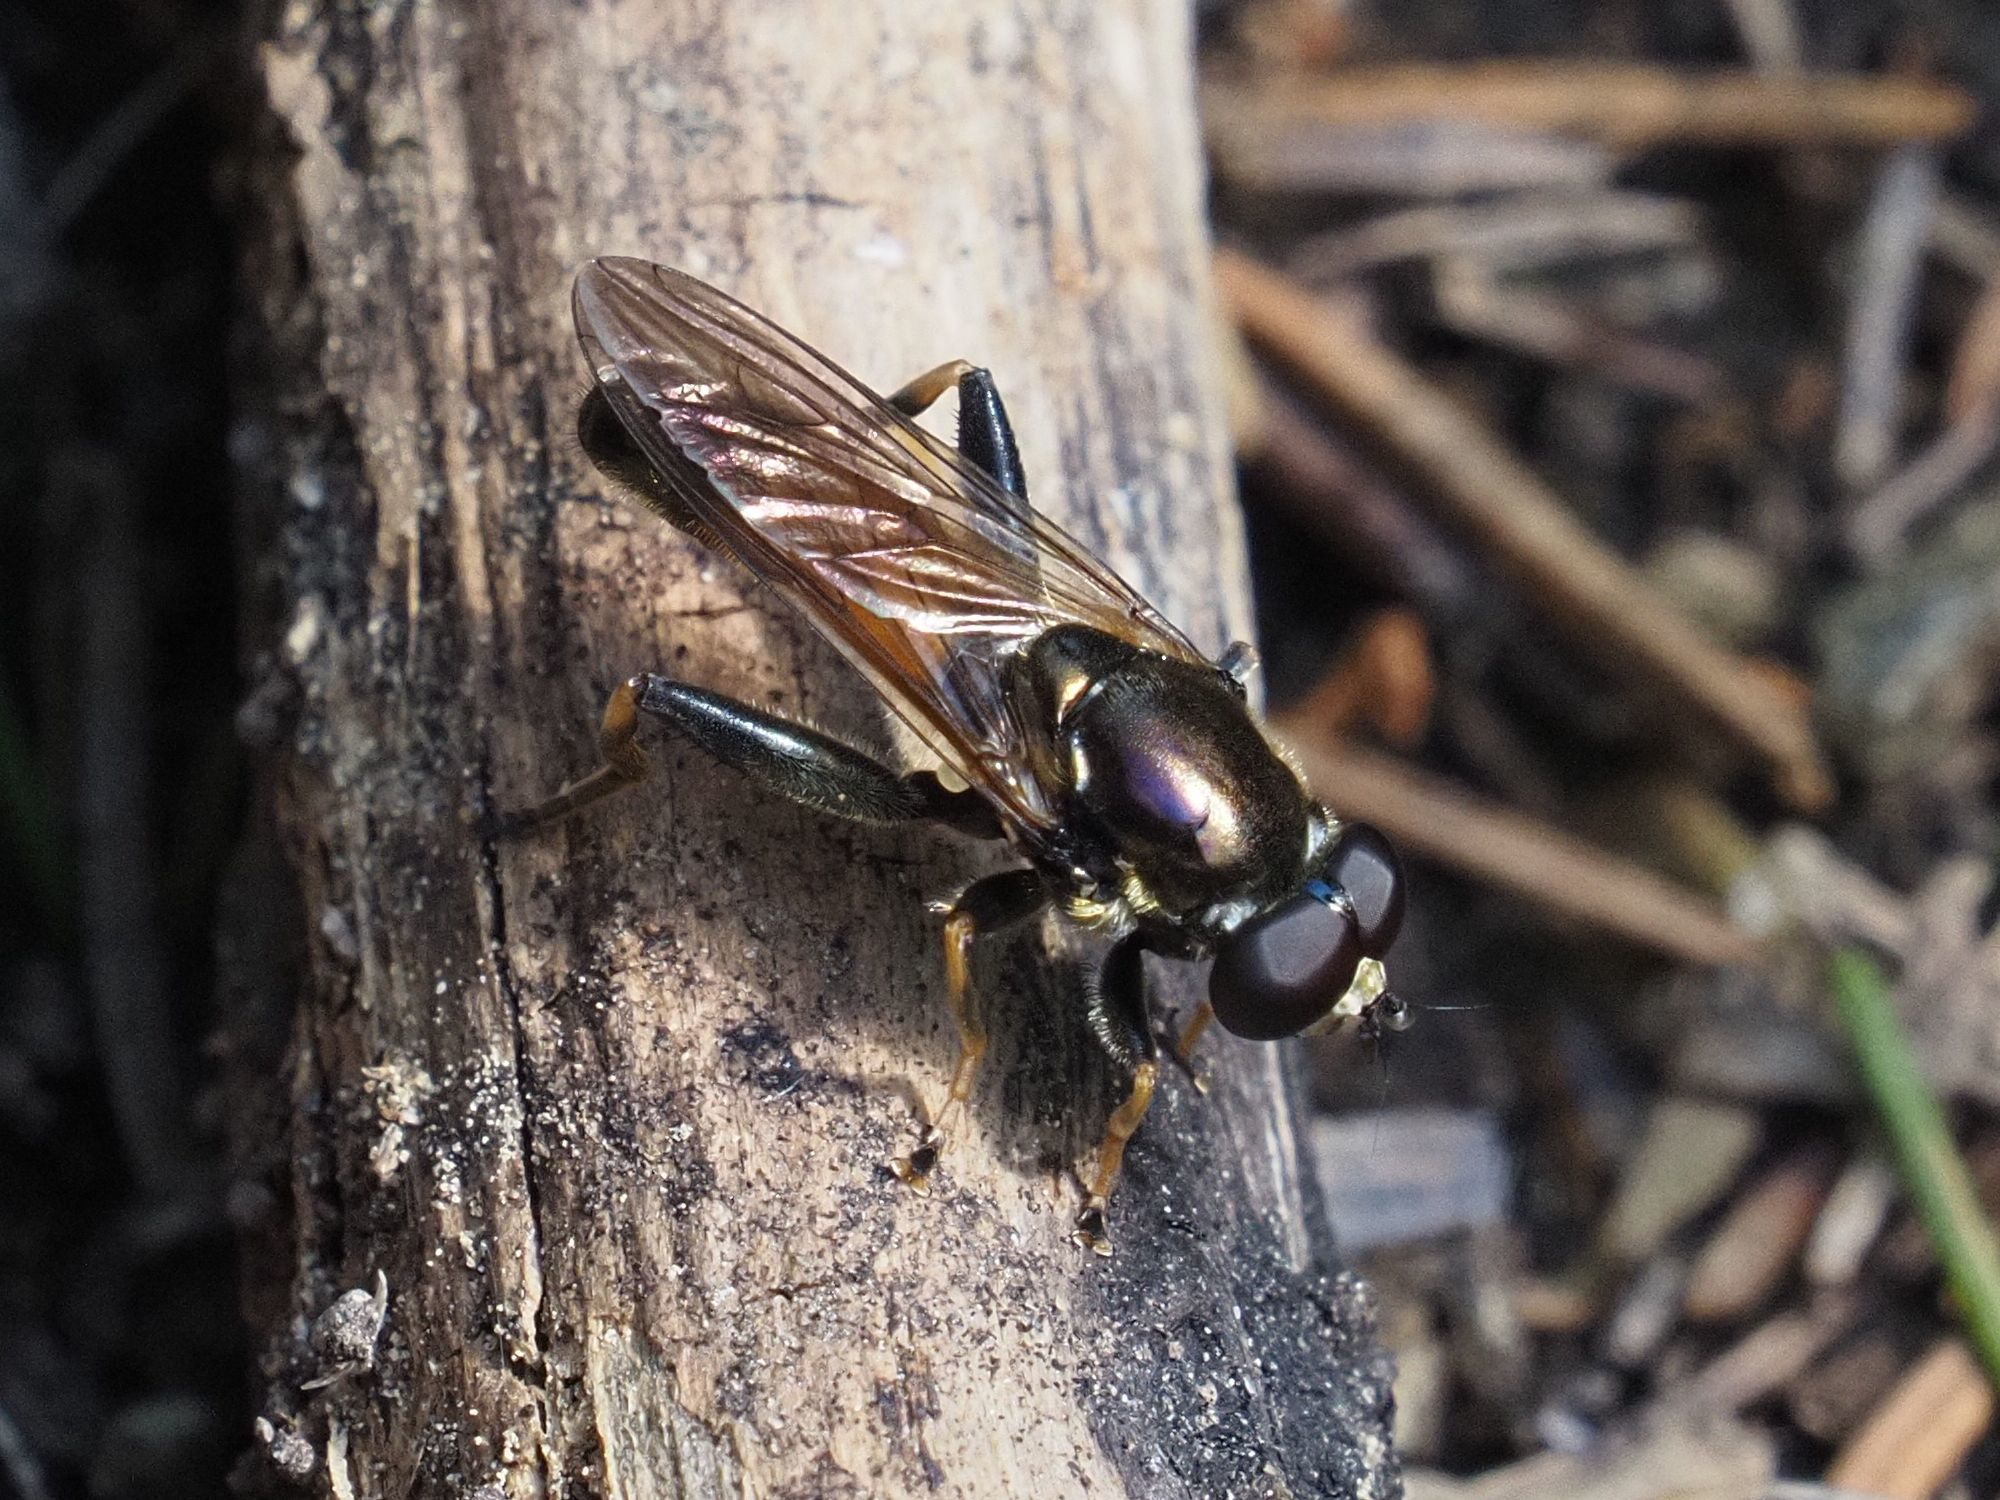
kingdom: Animalia
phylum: Arthropoda
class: Insecta
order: Diptera
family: Syrphidae
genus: Xylota
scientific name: Xylota segnis
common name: Brown-toed forest fly
